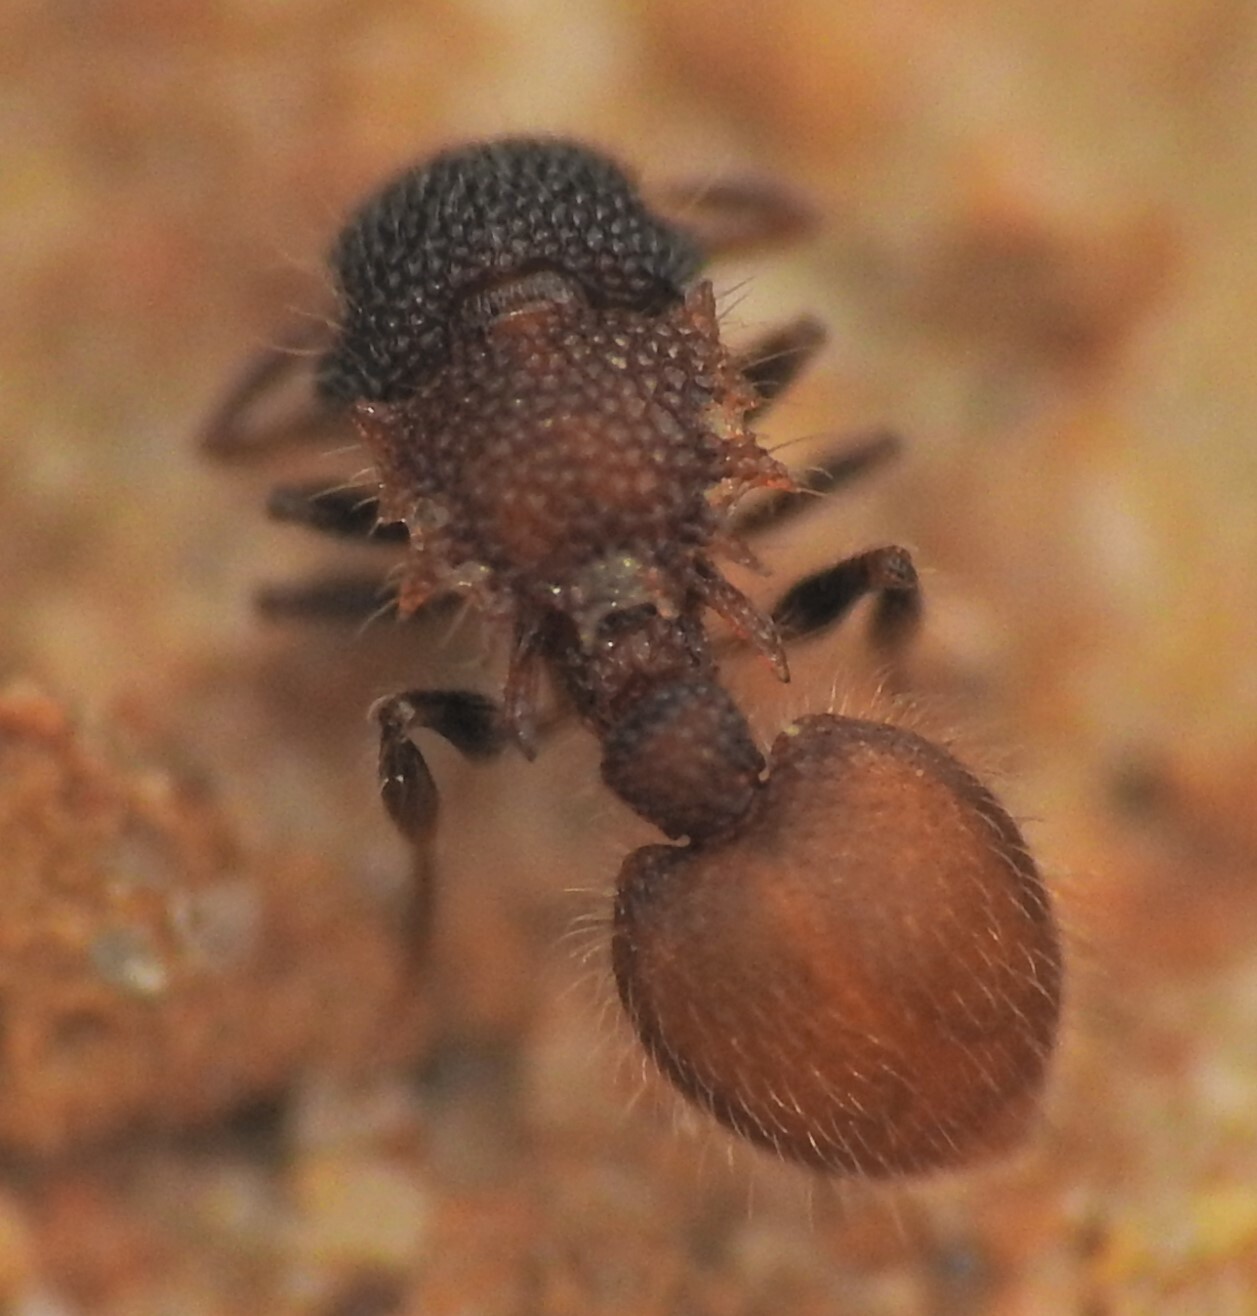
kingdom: Animalia
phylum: Arthropoda
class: Insecta
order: Hymenoptera
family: Formicidae
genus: Meranoplus
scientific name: Meranoplus
